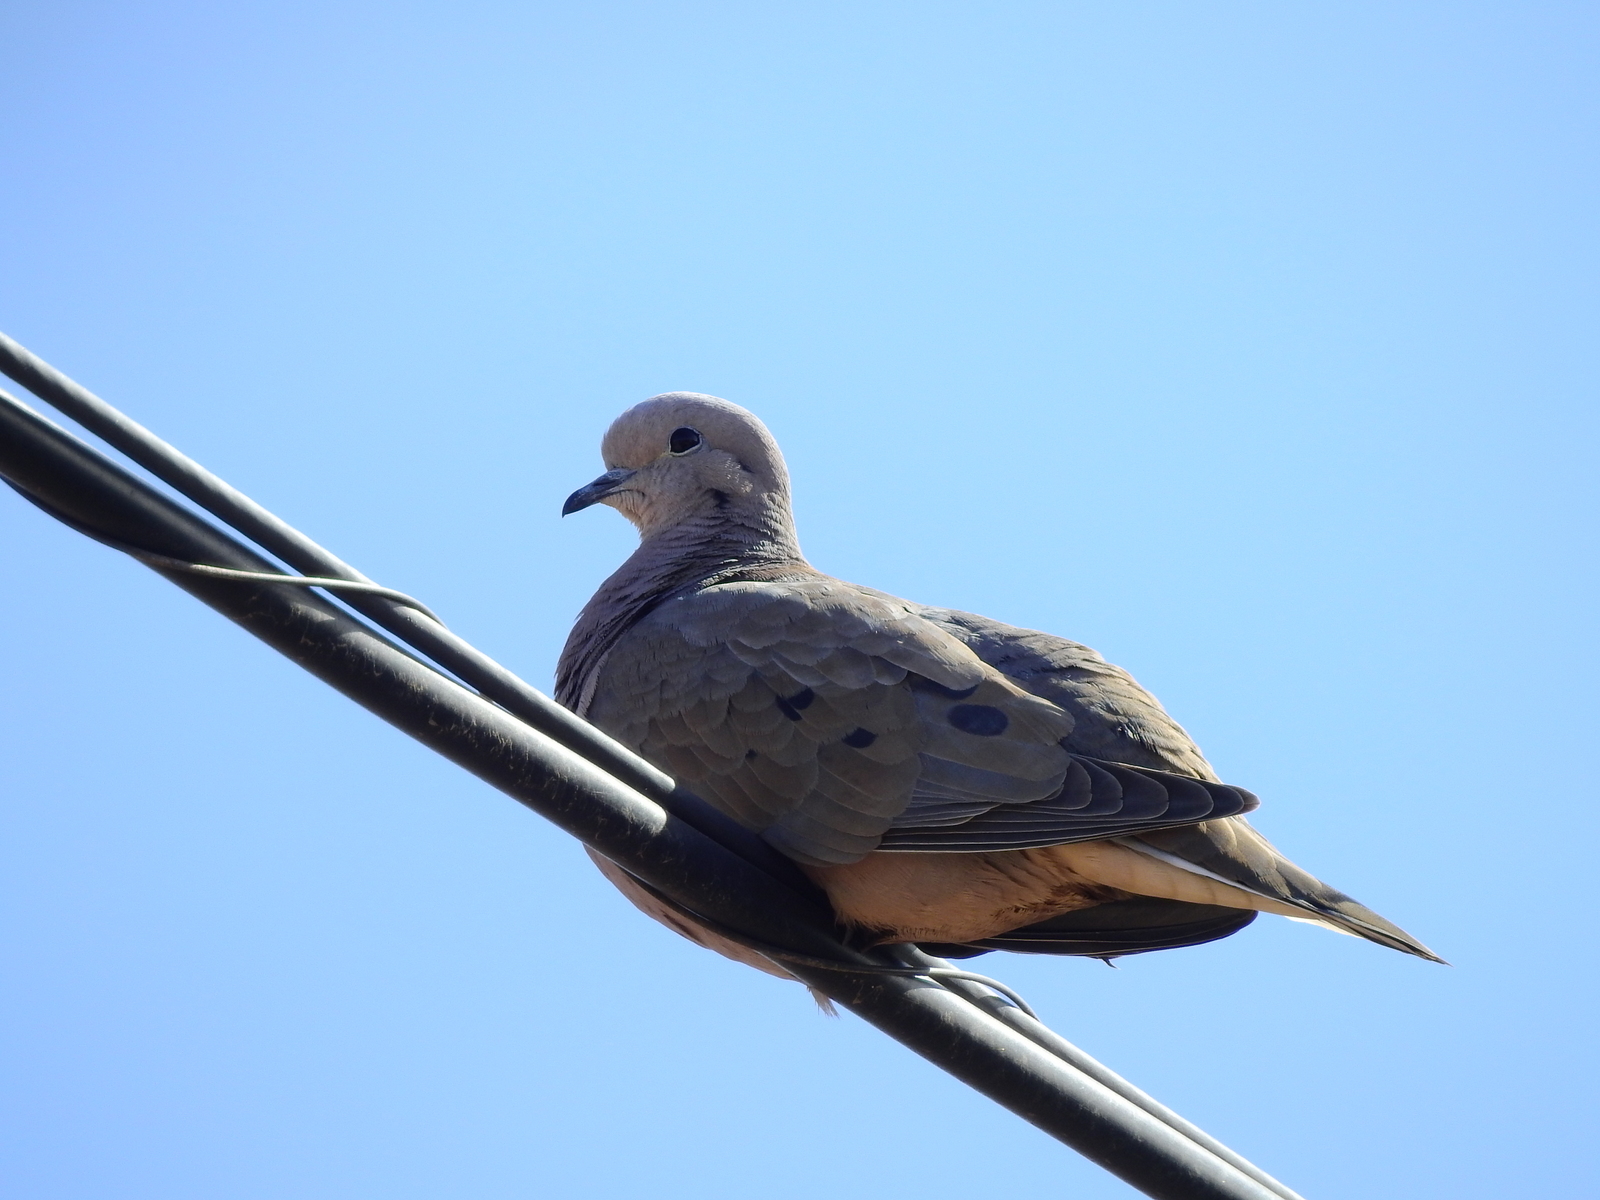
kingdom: Animalia
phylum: Chordata
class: Aves
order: Columbiformes
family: Columbidae
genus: Zenaida
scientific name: Zenaida auriculata
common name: Eared dove
